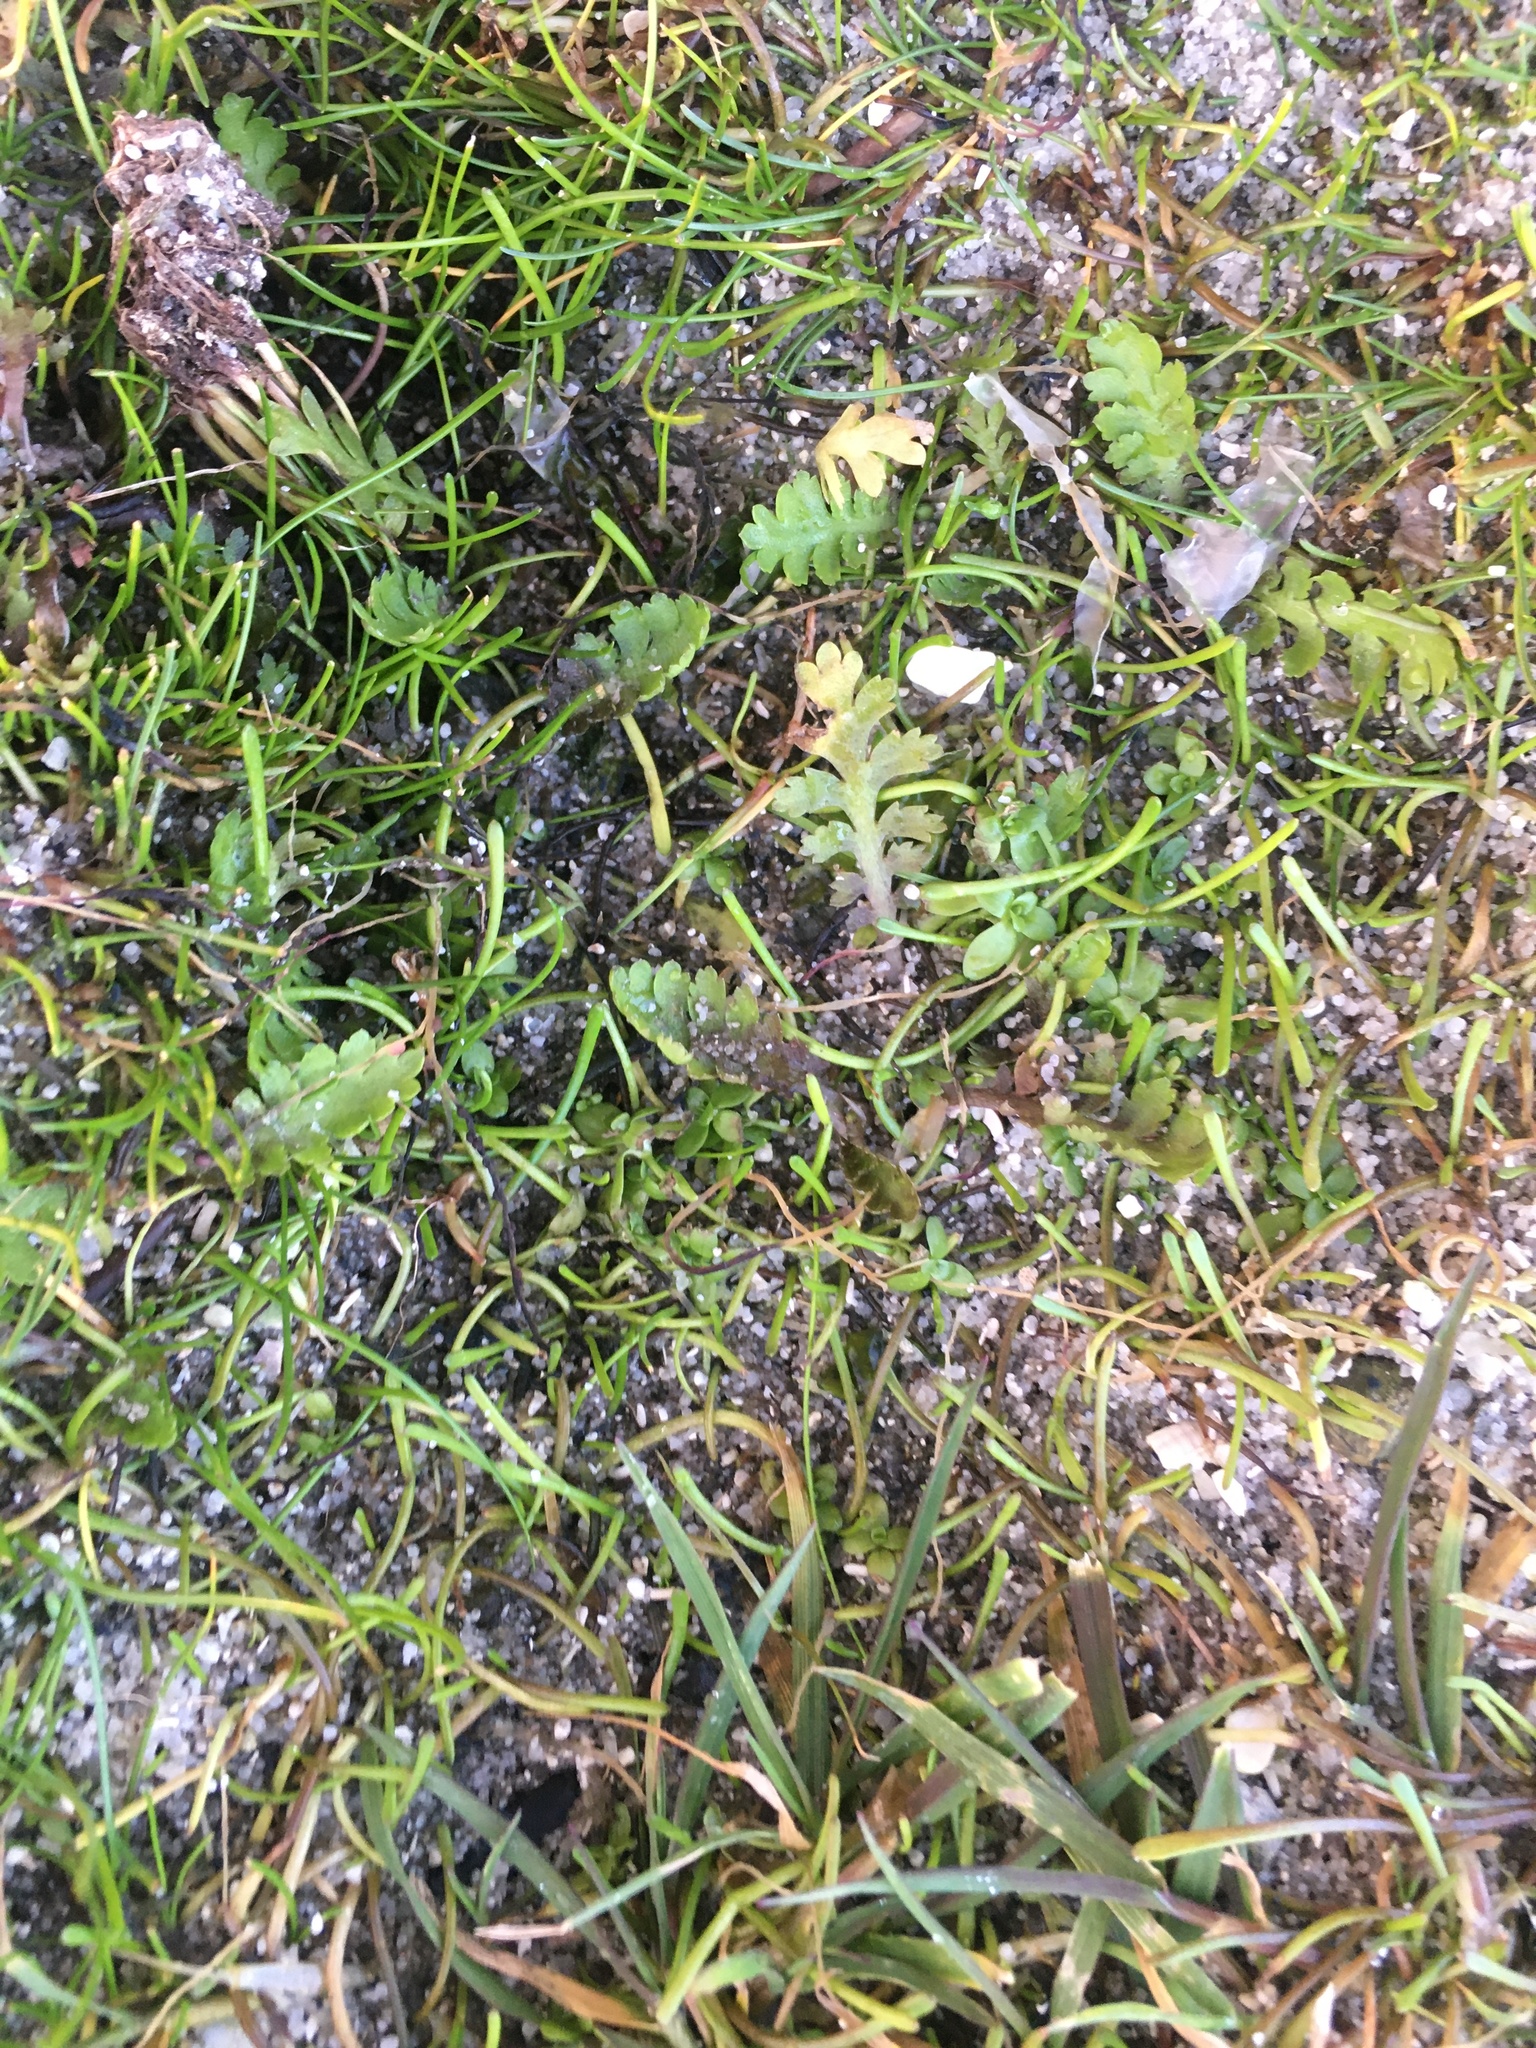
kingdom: Plantae
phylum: Tracheophyta
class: Magnoliopsida
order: Asterales
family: Asteraceae
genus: Leptinella
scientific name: Leptinella squalida
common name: New zealand brass-buttons
